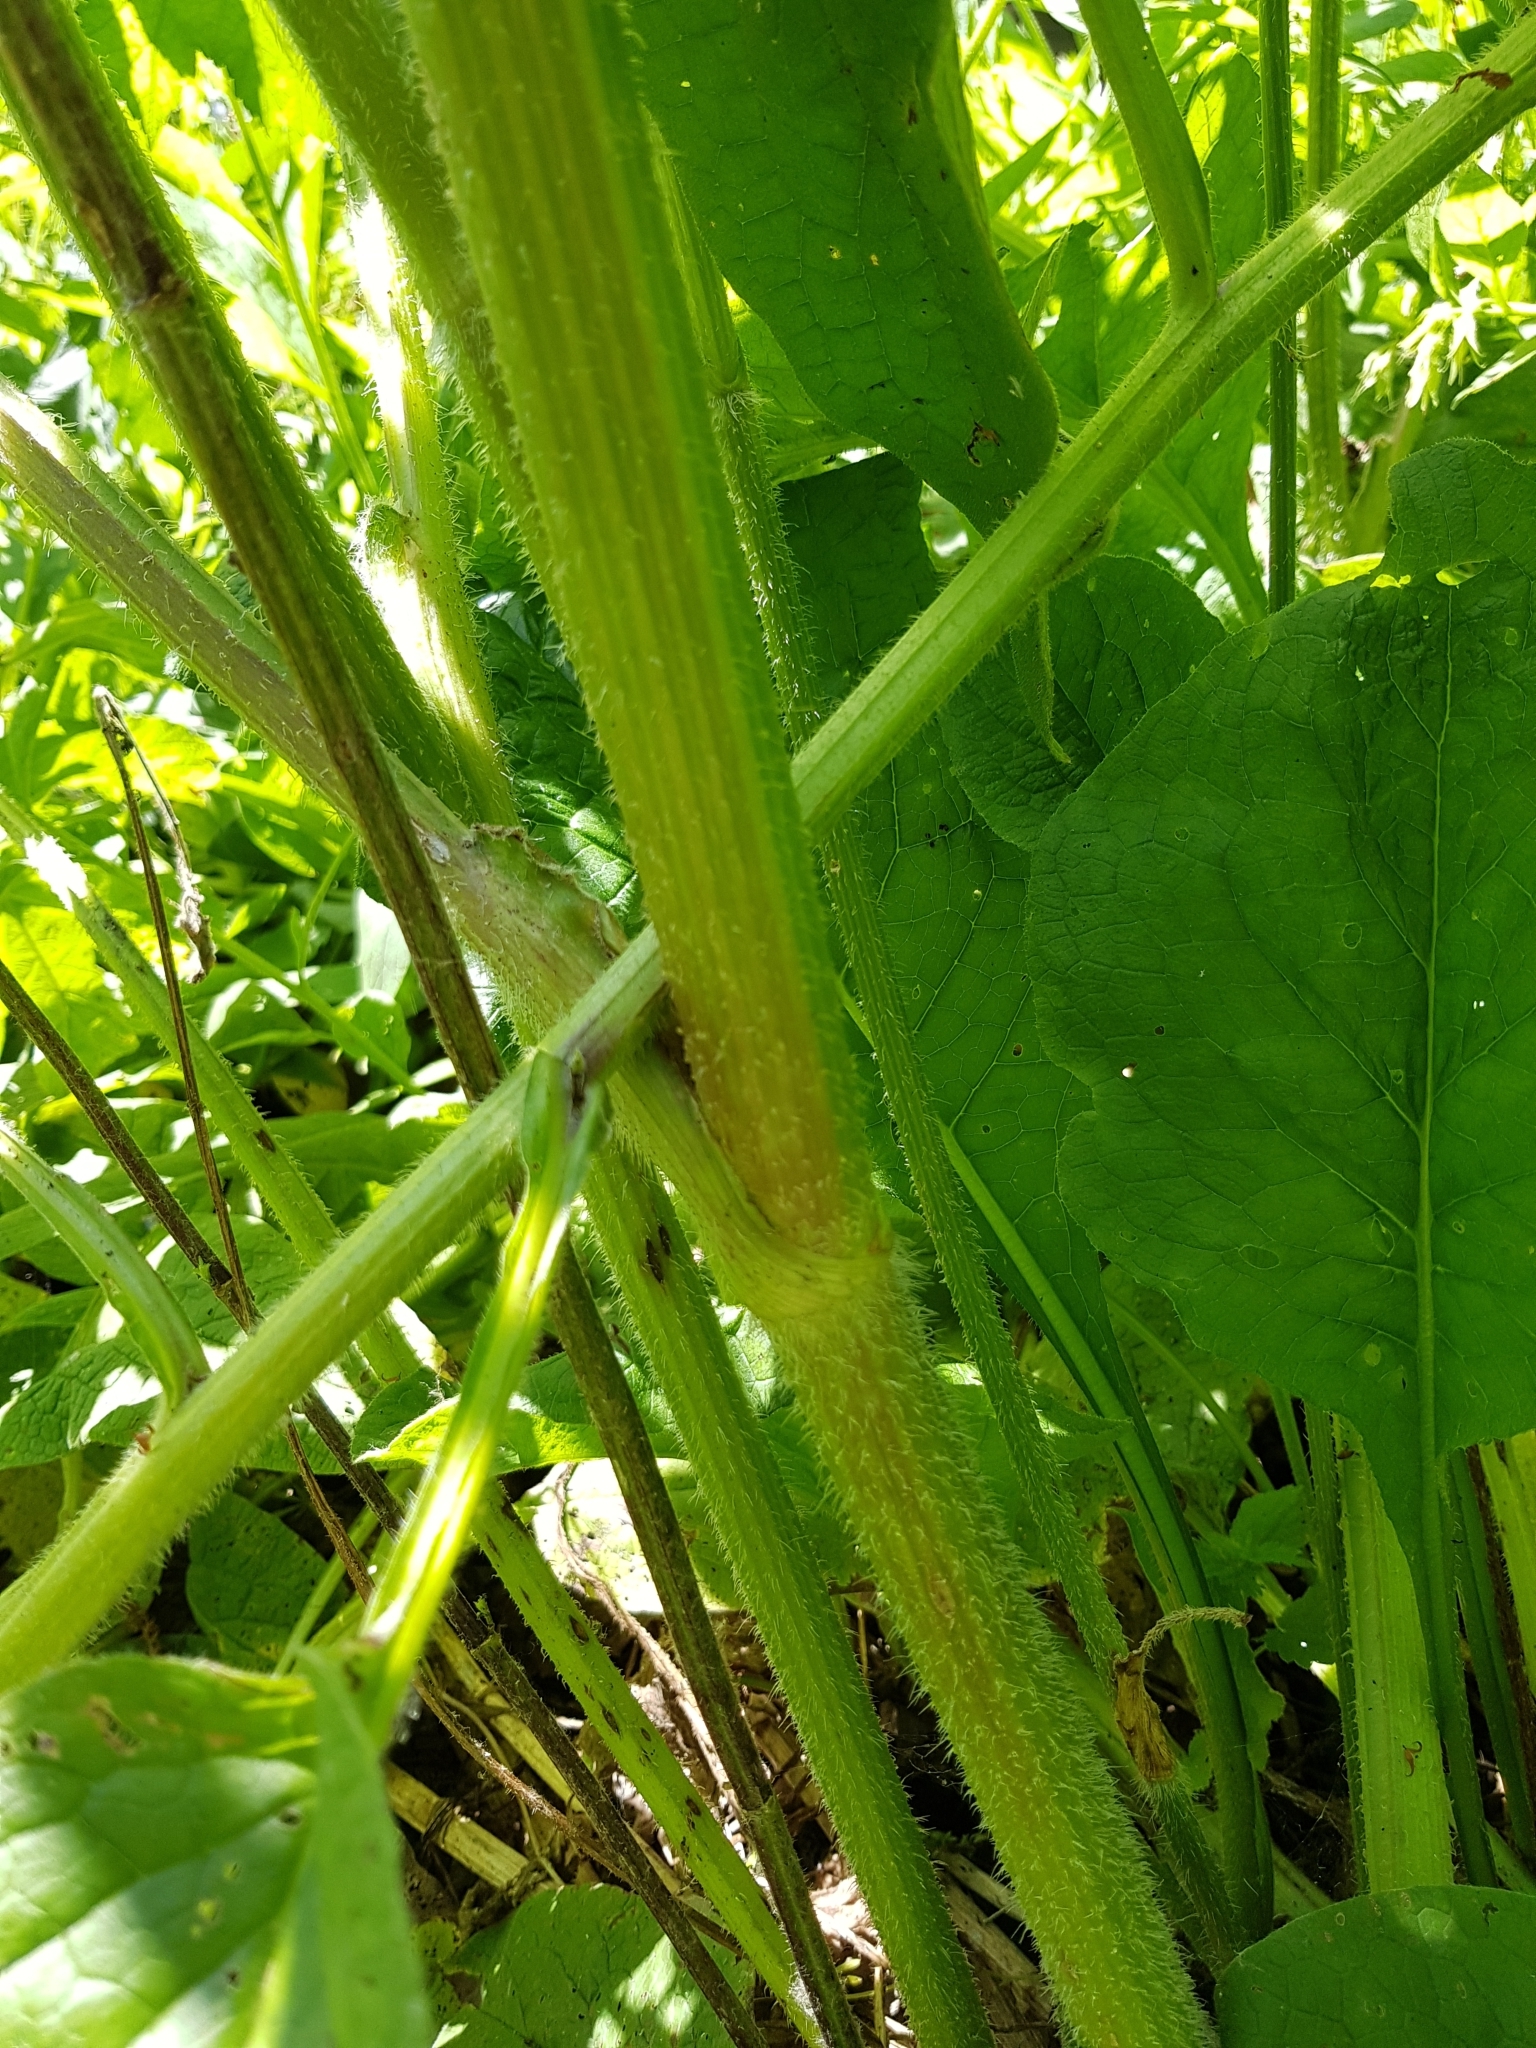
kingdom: Plantae
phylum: Tracheophyta
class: Magnoliopsida
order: Apiales
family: Apiaceae
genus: Heracleum
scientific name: Heracleum sphondylium
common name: Hogweed
